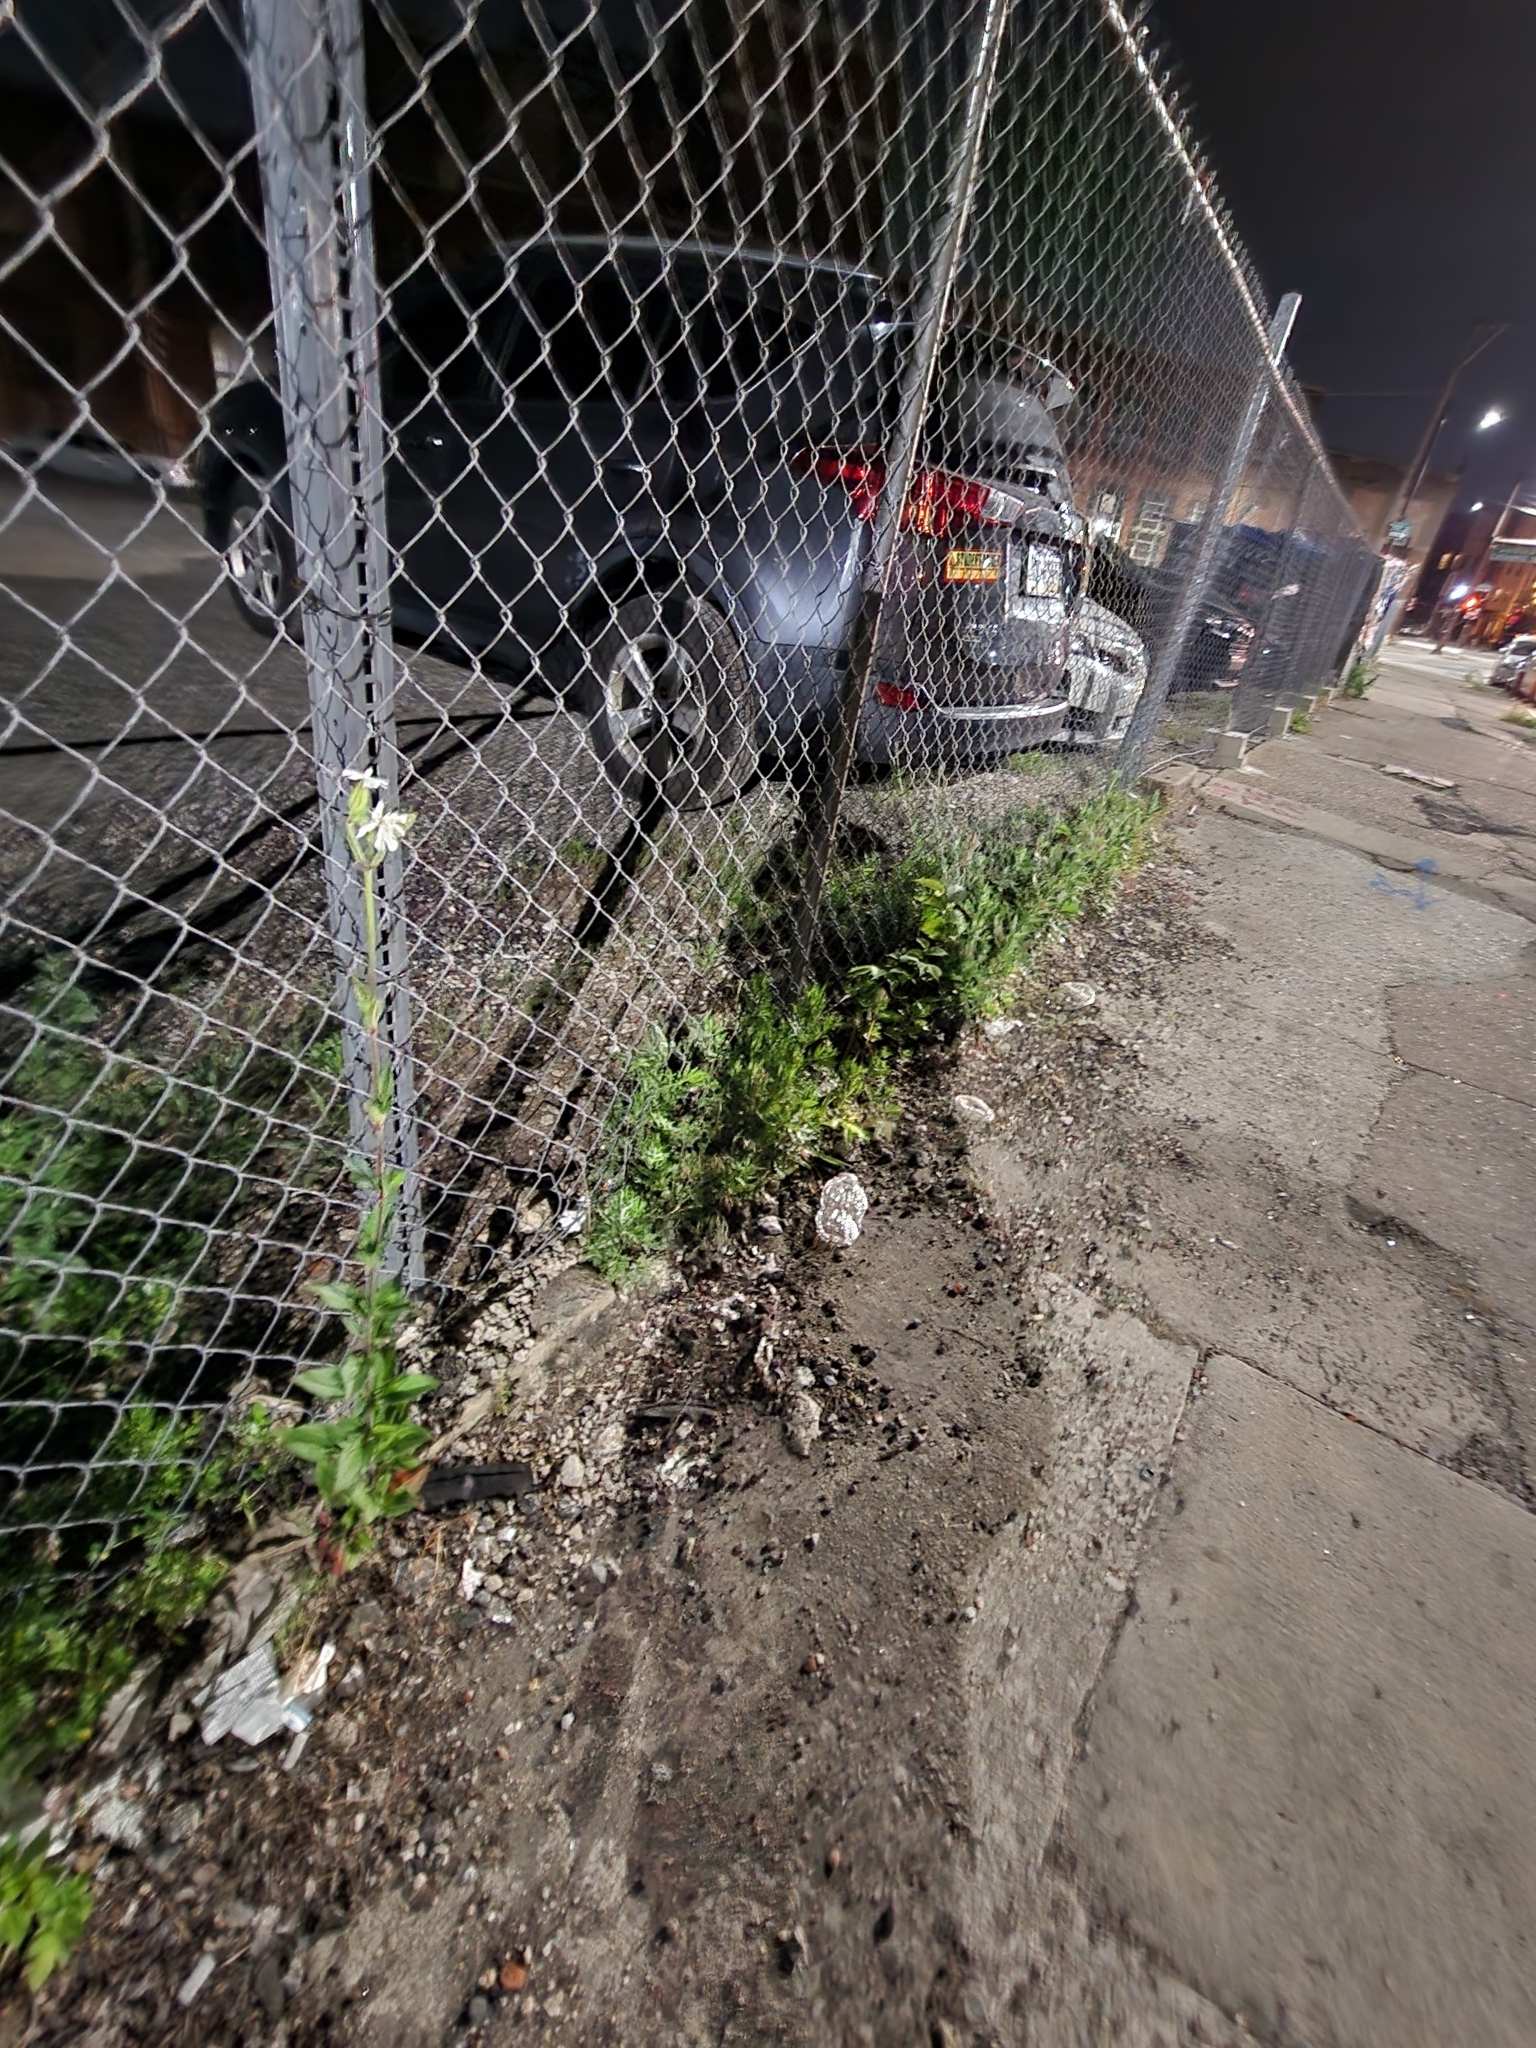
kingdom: Plantae
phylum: Tracheophyta
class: Magnoliopsida
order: Caryophyllales
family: Caryophyllaceae
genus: Silene
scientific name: Silene latifolia
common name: White campion
